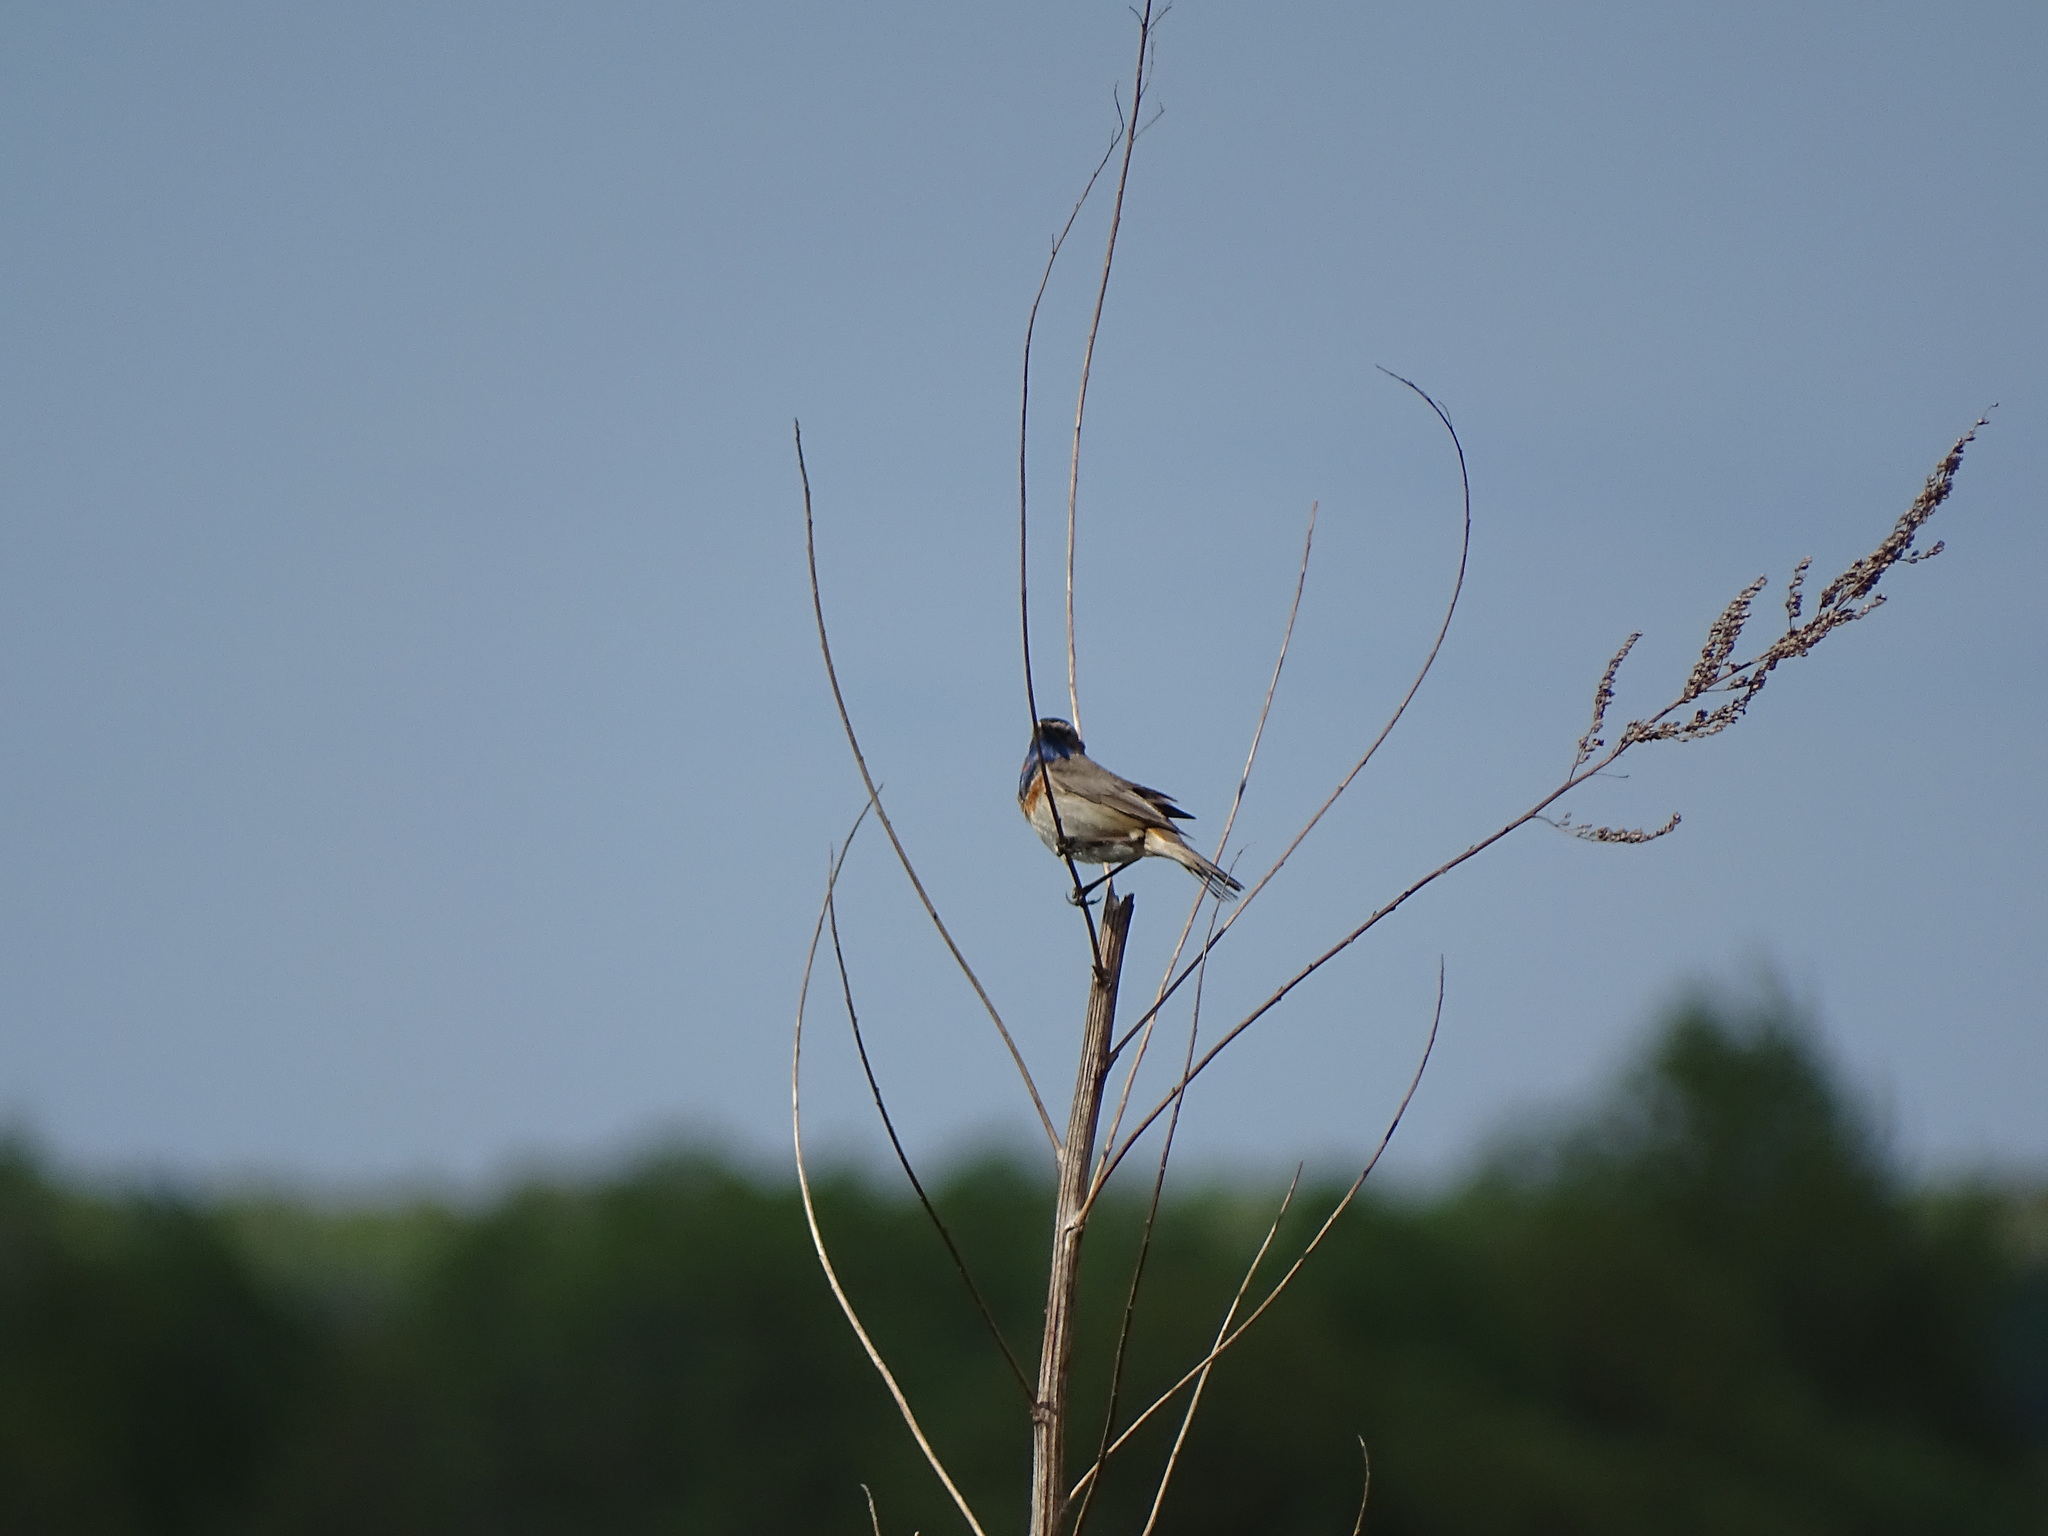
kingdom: Animalia
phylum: Chordata
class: Aves
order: Passeriformes
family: Muscicapidae
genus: Luscinia
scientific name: Luscinia svecica
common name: Bluethroat
